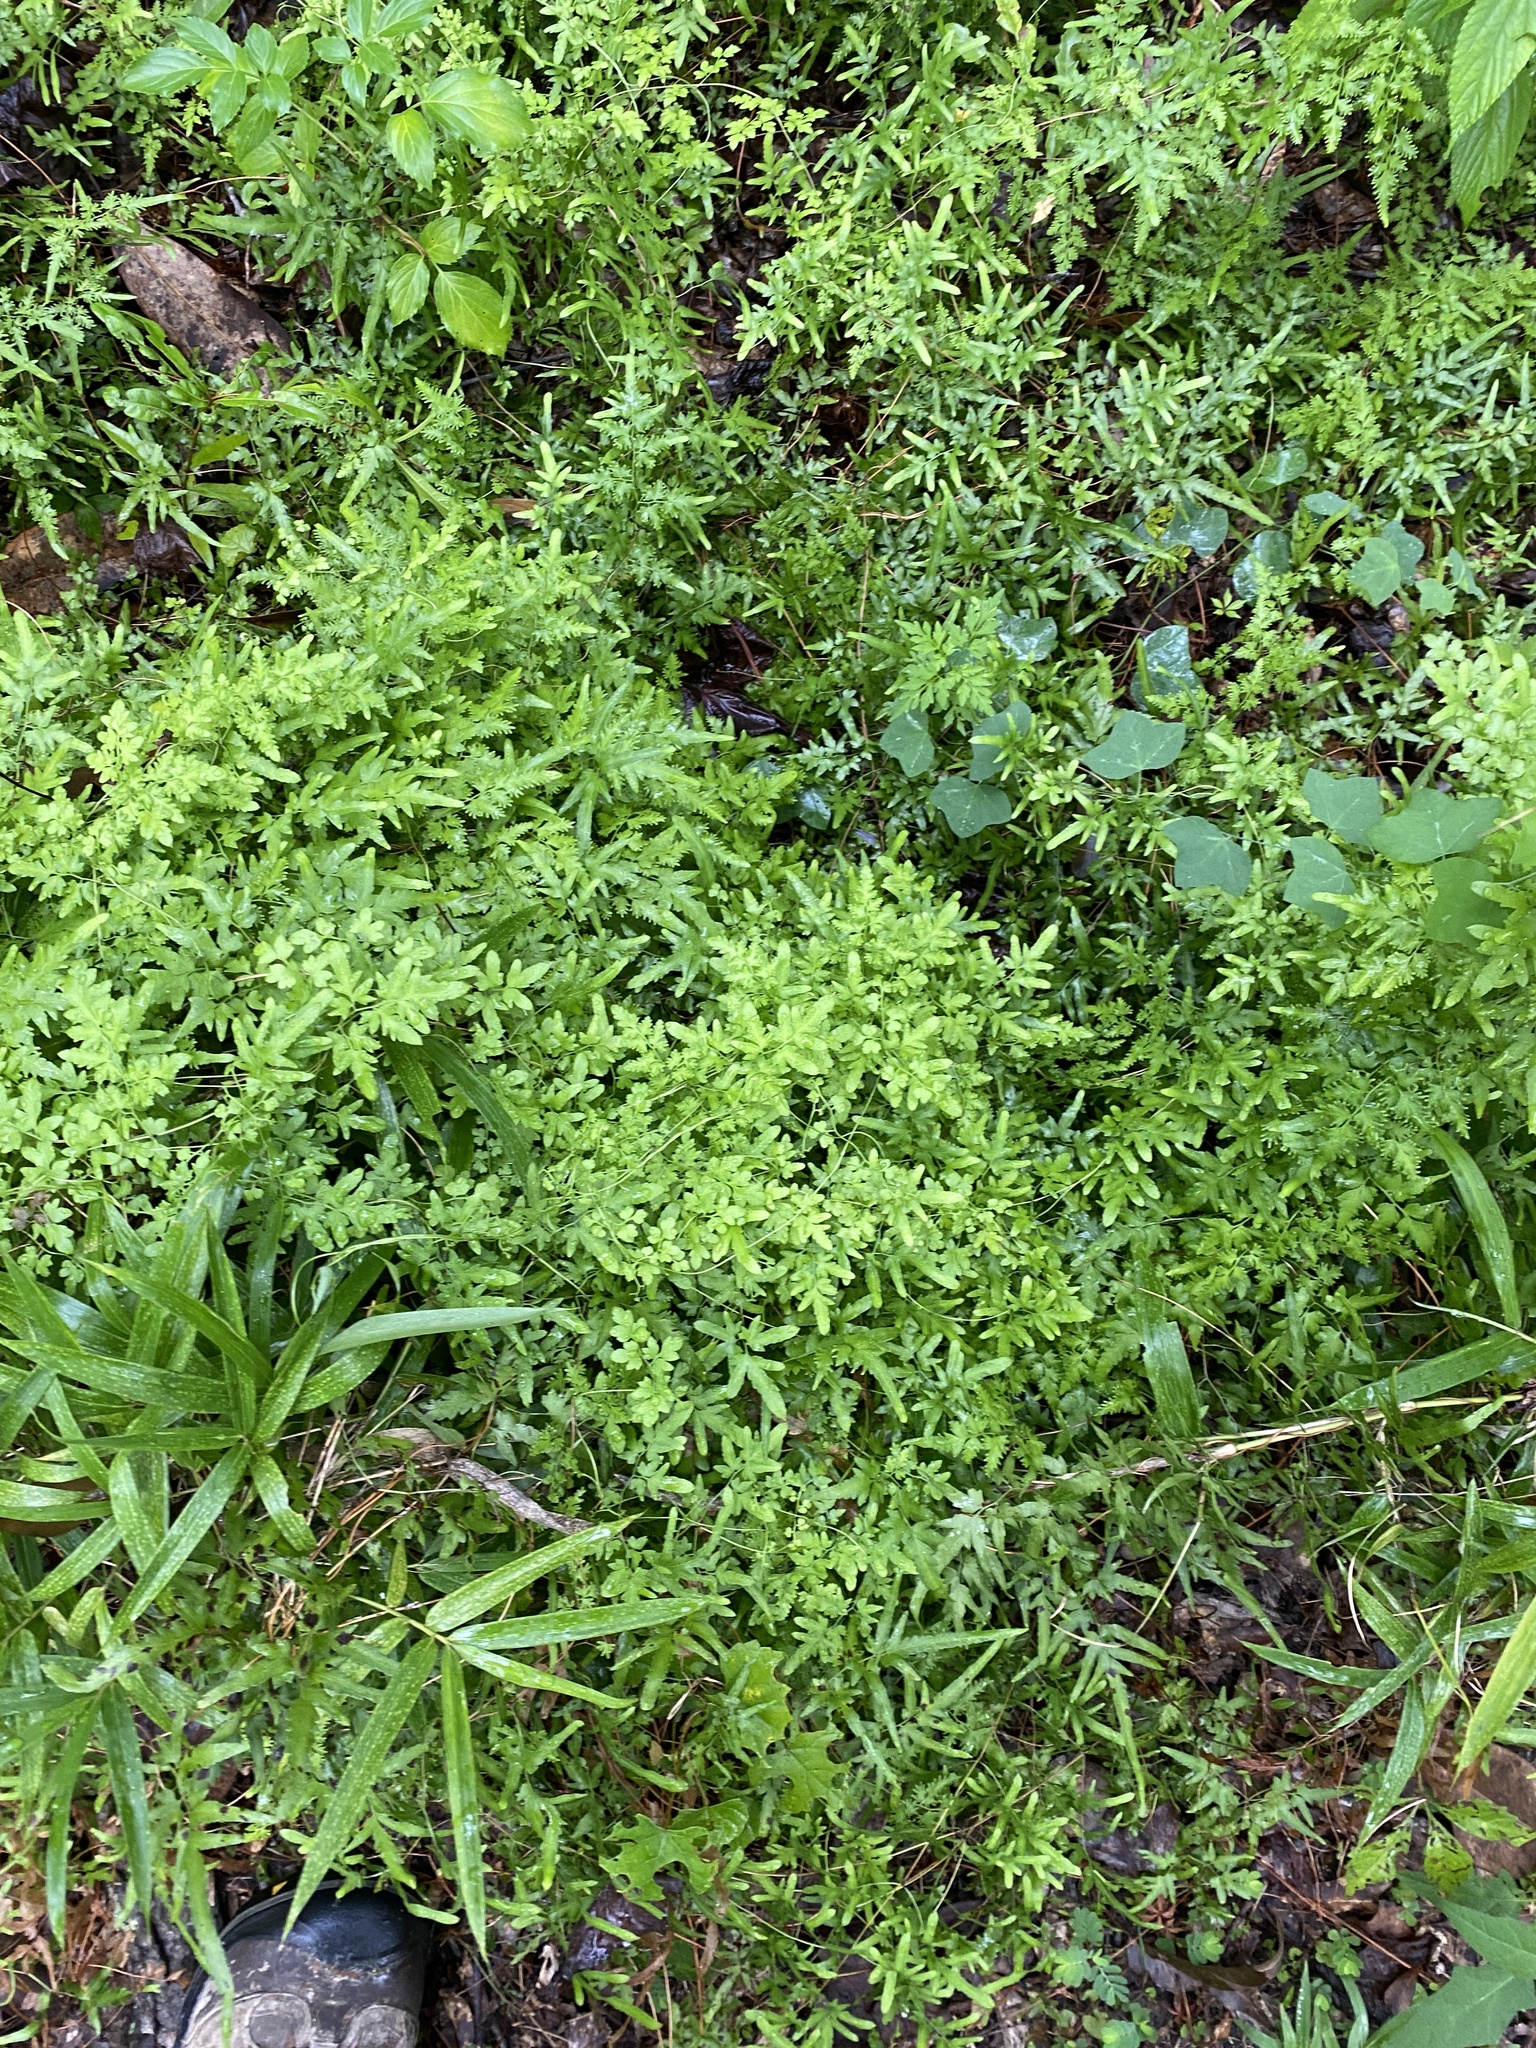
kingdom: Plantae
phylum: Tracheophyta
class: Polypodiopsida
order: Schizaeales
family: Lygodiaceae
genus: Lygodium
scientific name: Lygodium japonicum
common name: Japanese climbing fern
